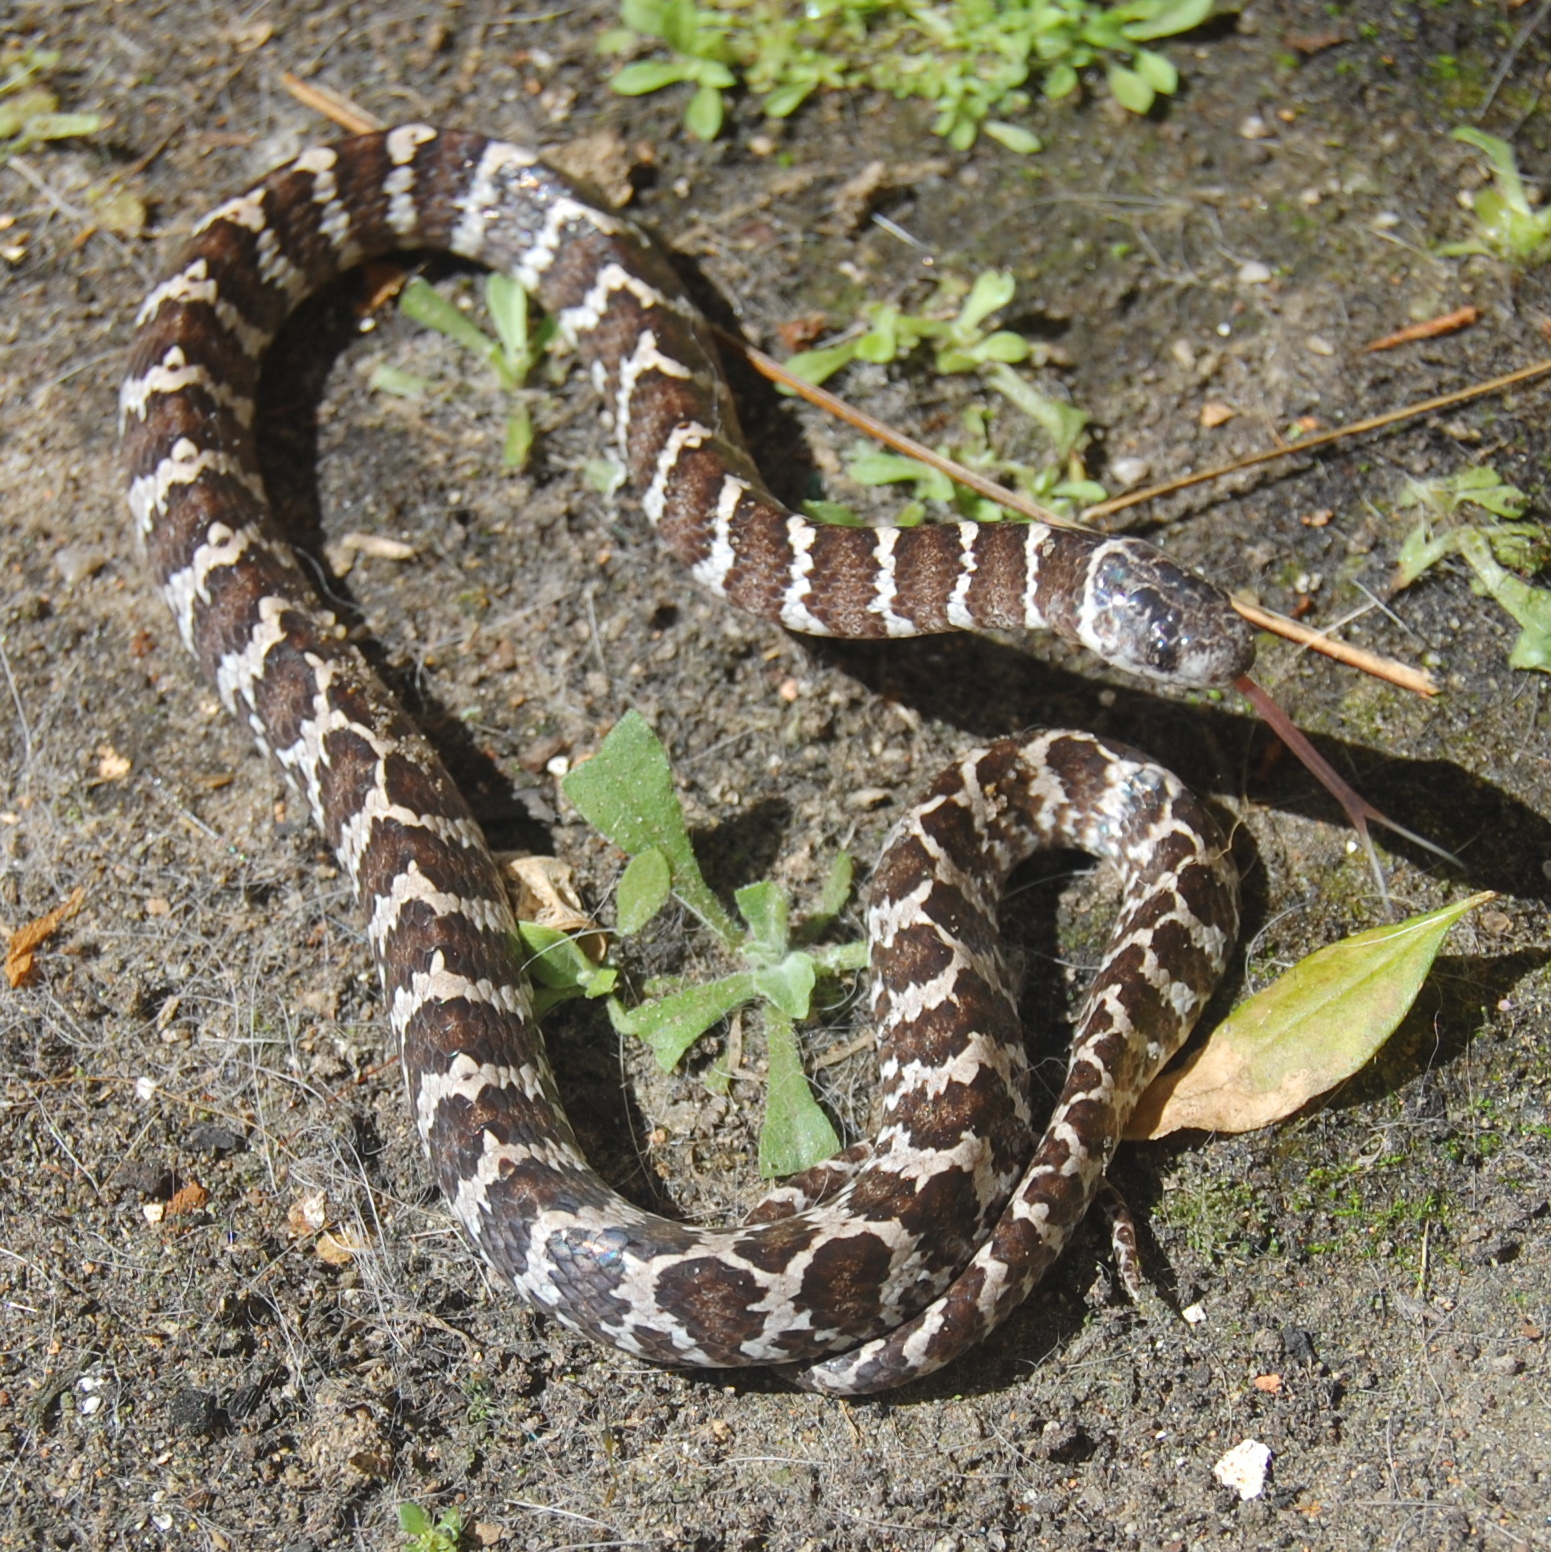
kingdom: Animalia
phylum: Chordata
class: Squamata
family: Colubridae
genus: Dipsas
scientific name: Dipsas ventrimaculata
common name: Boulenger's tree snake
